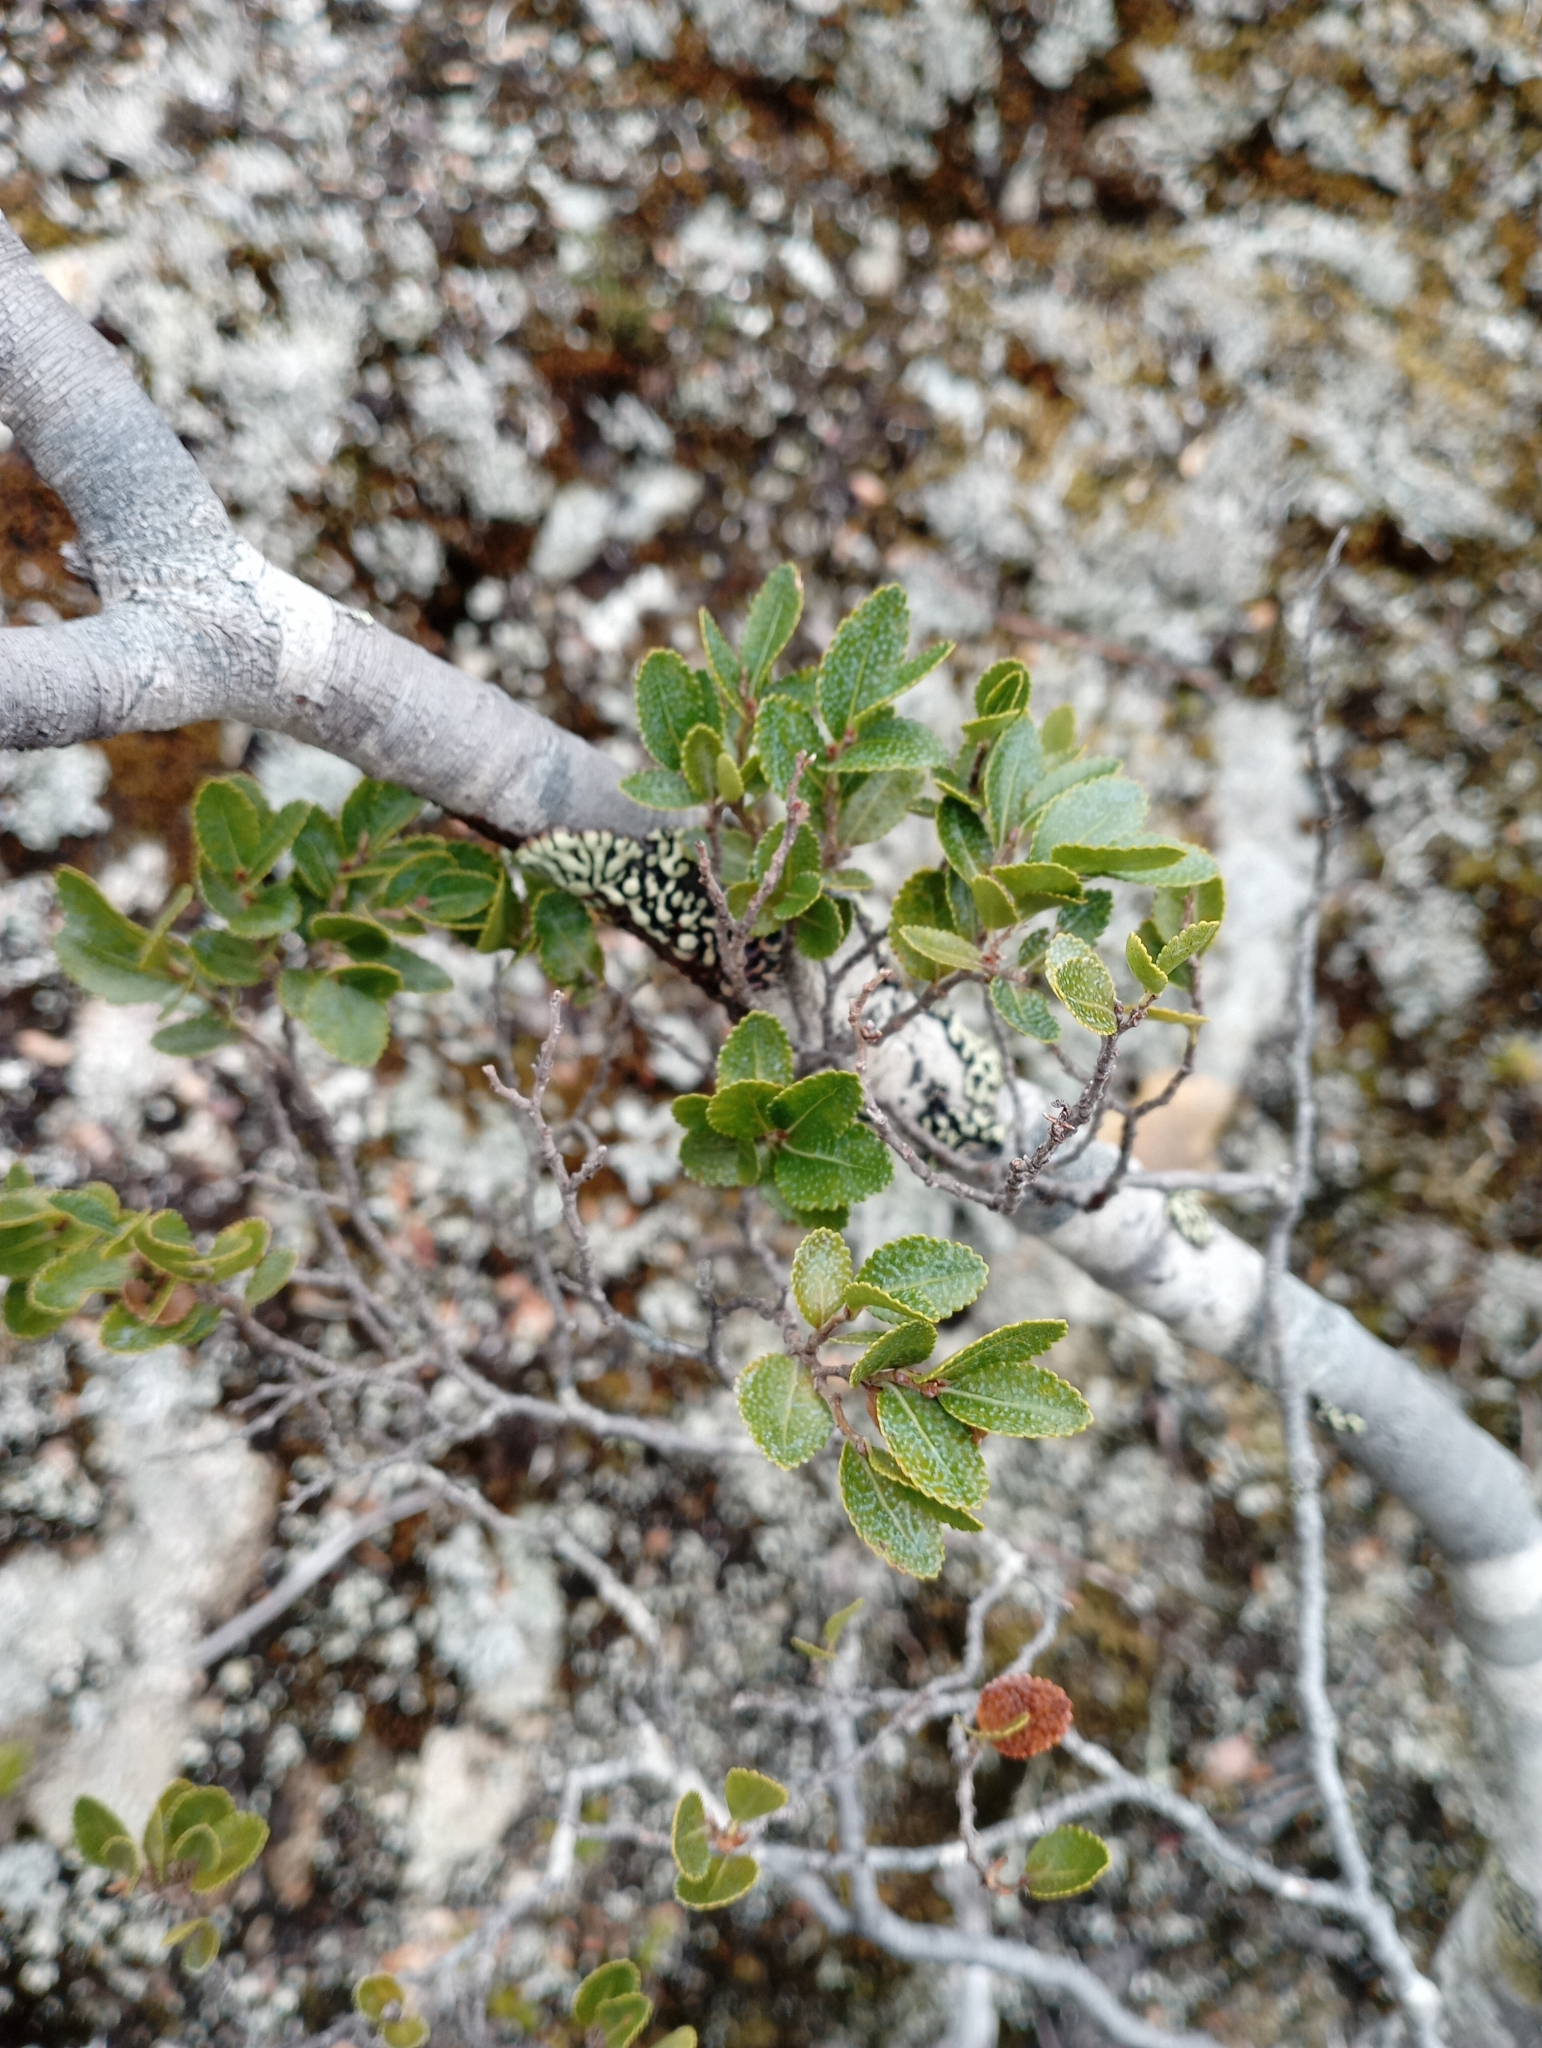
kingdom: Plantae
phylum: Tracheophyta
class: Magnoliopsida
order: Fagales
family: Nothofagaceae
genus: Nothofagus
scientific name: Nothofagus betuloides
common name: Magellan's beech
